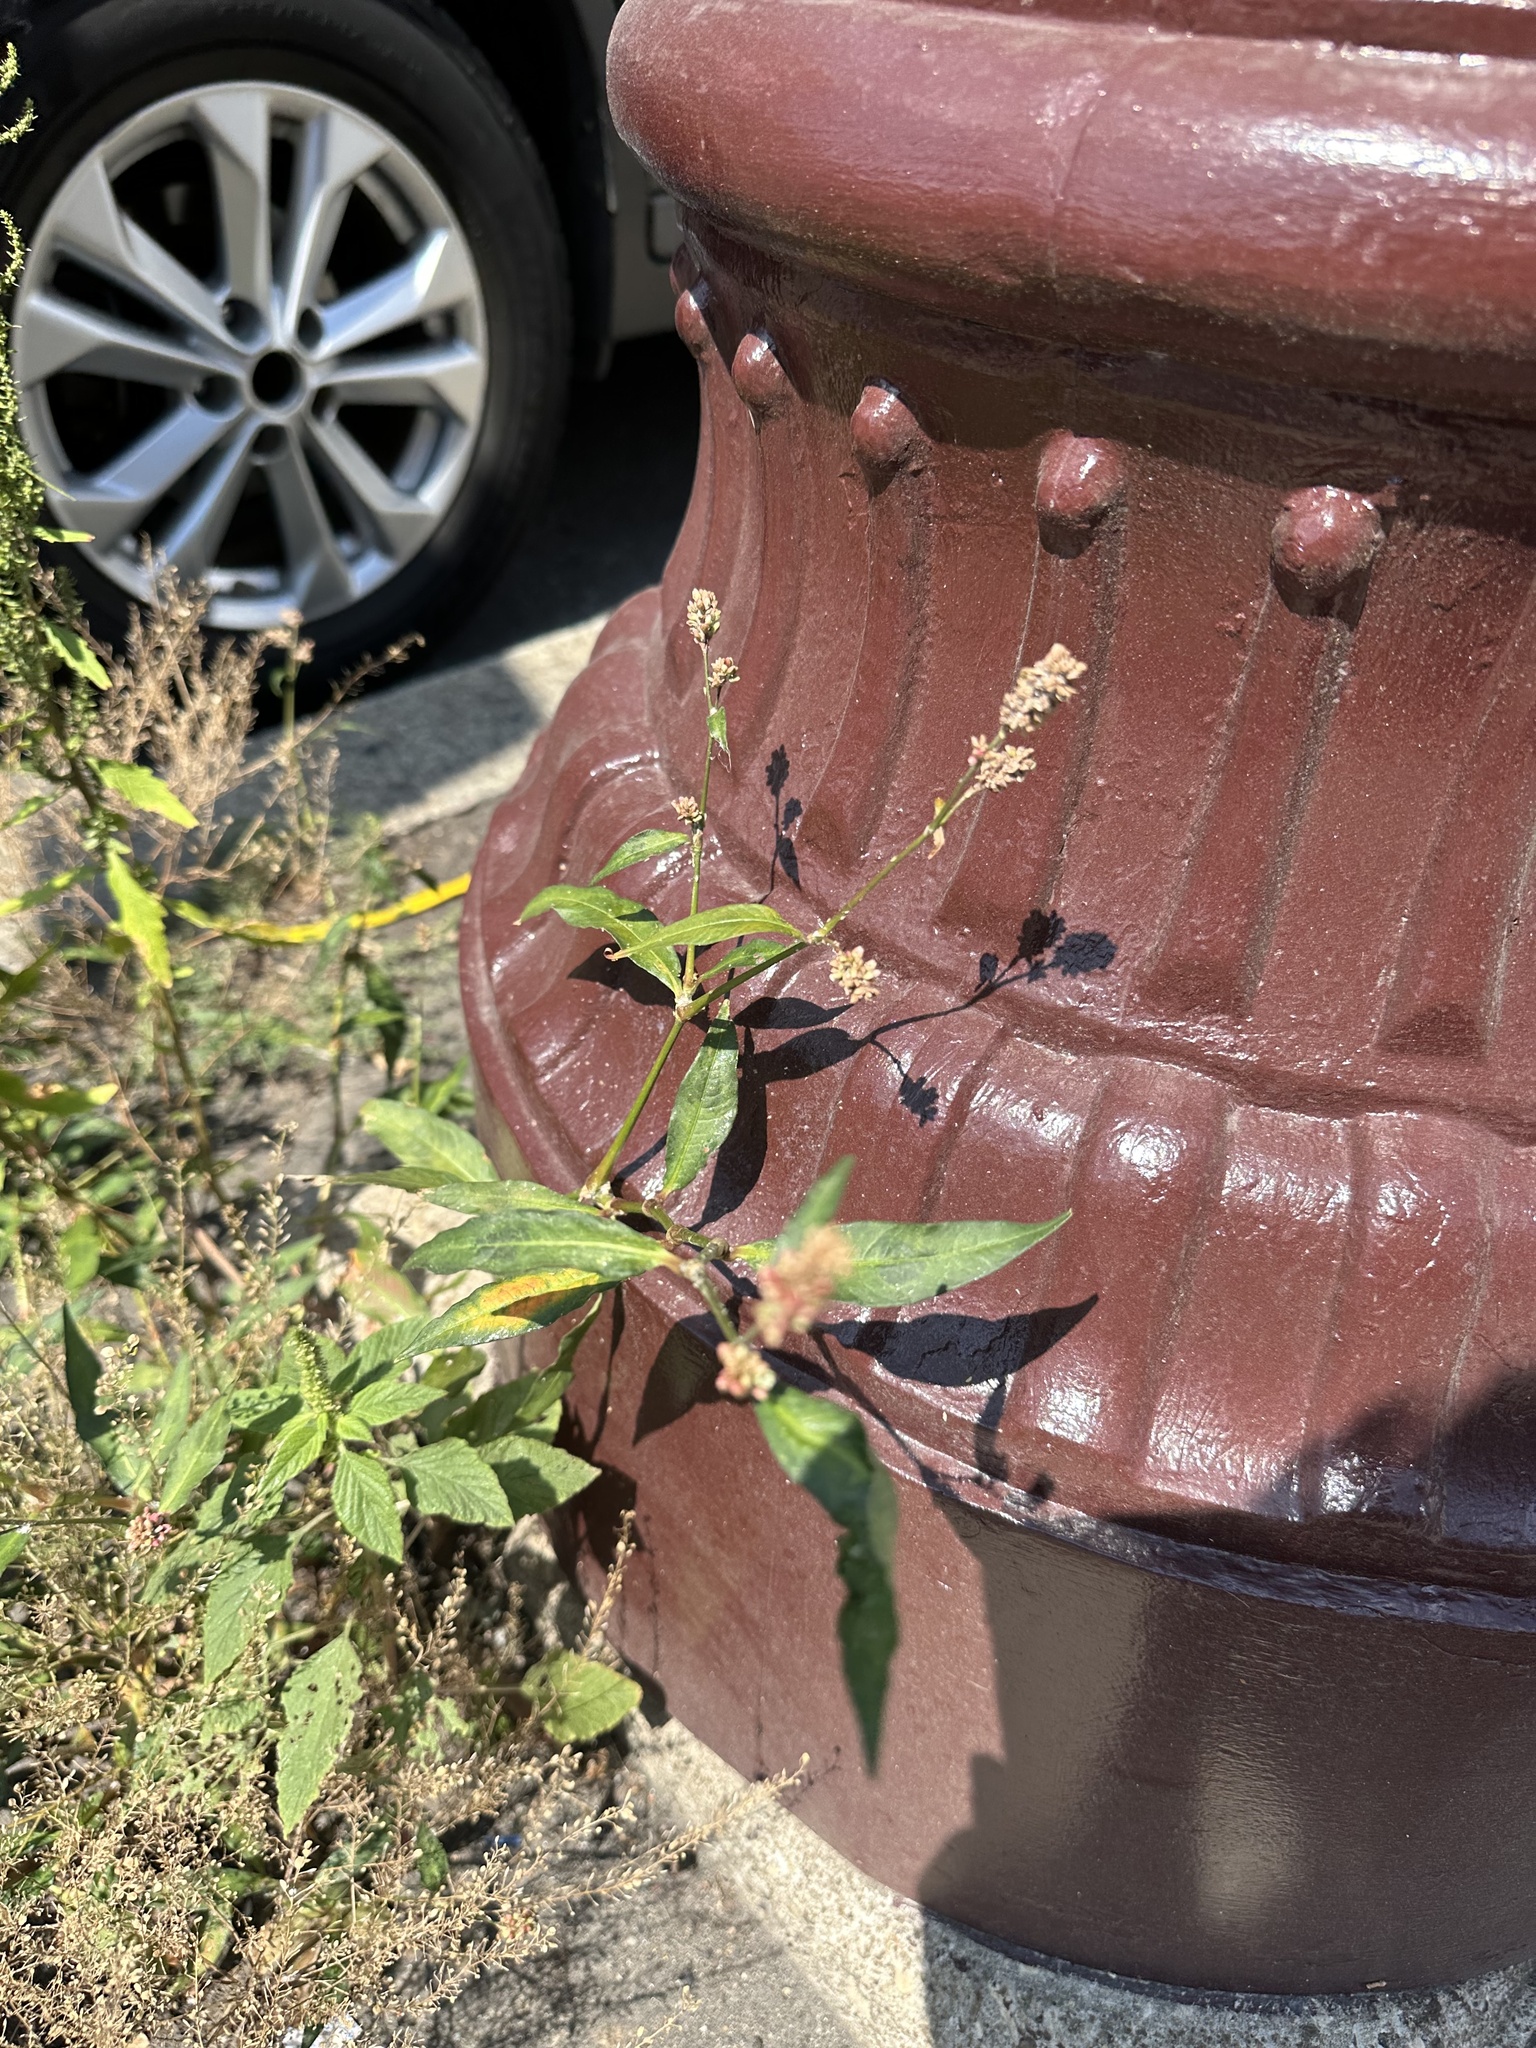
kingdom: Plantae
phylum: Tracheophyta
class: Magnoliopsida
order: Caryophyllales
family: Polygonaceae
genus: Persicaria
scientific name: Persicaria maculosa
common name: Redshank
